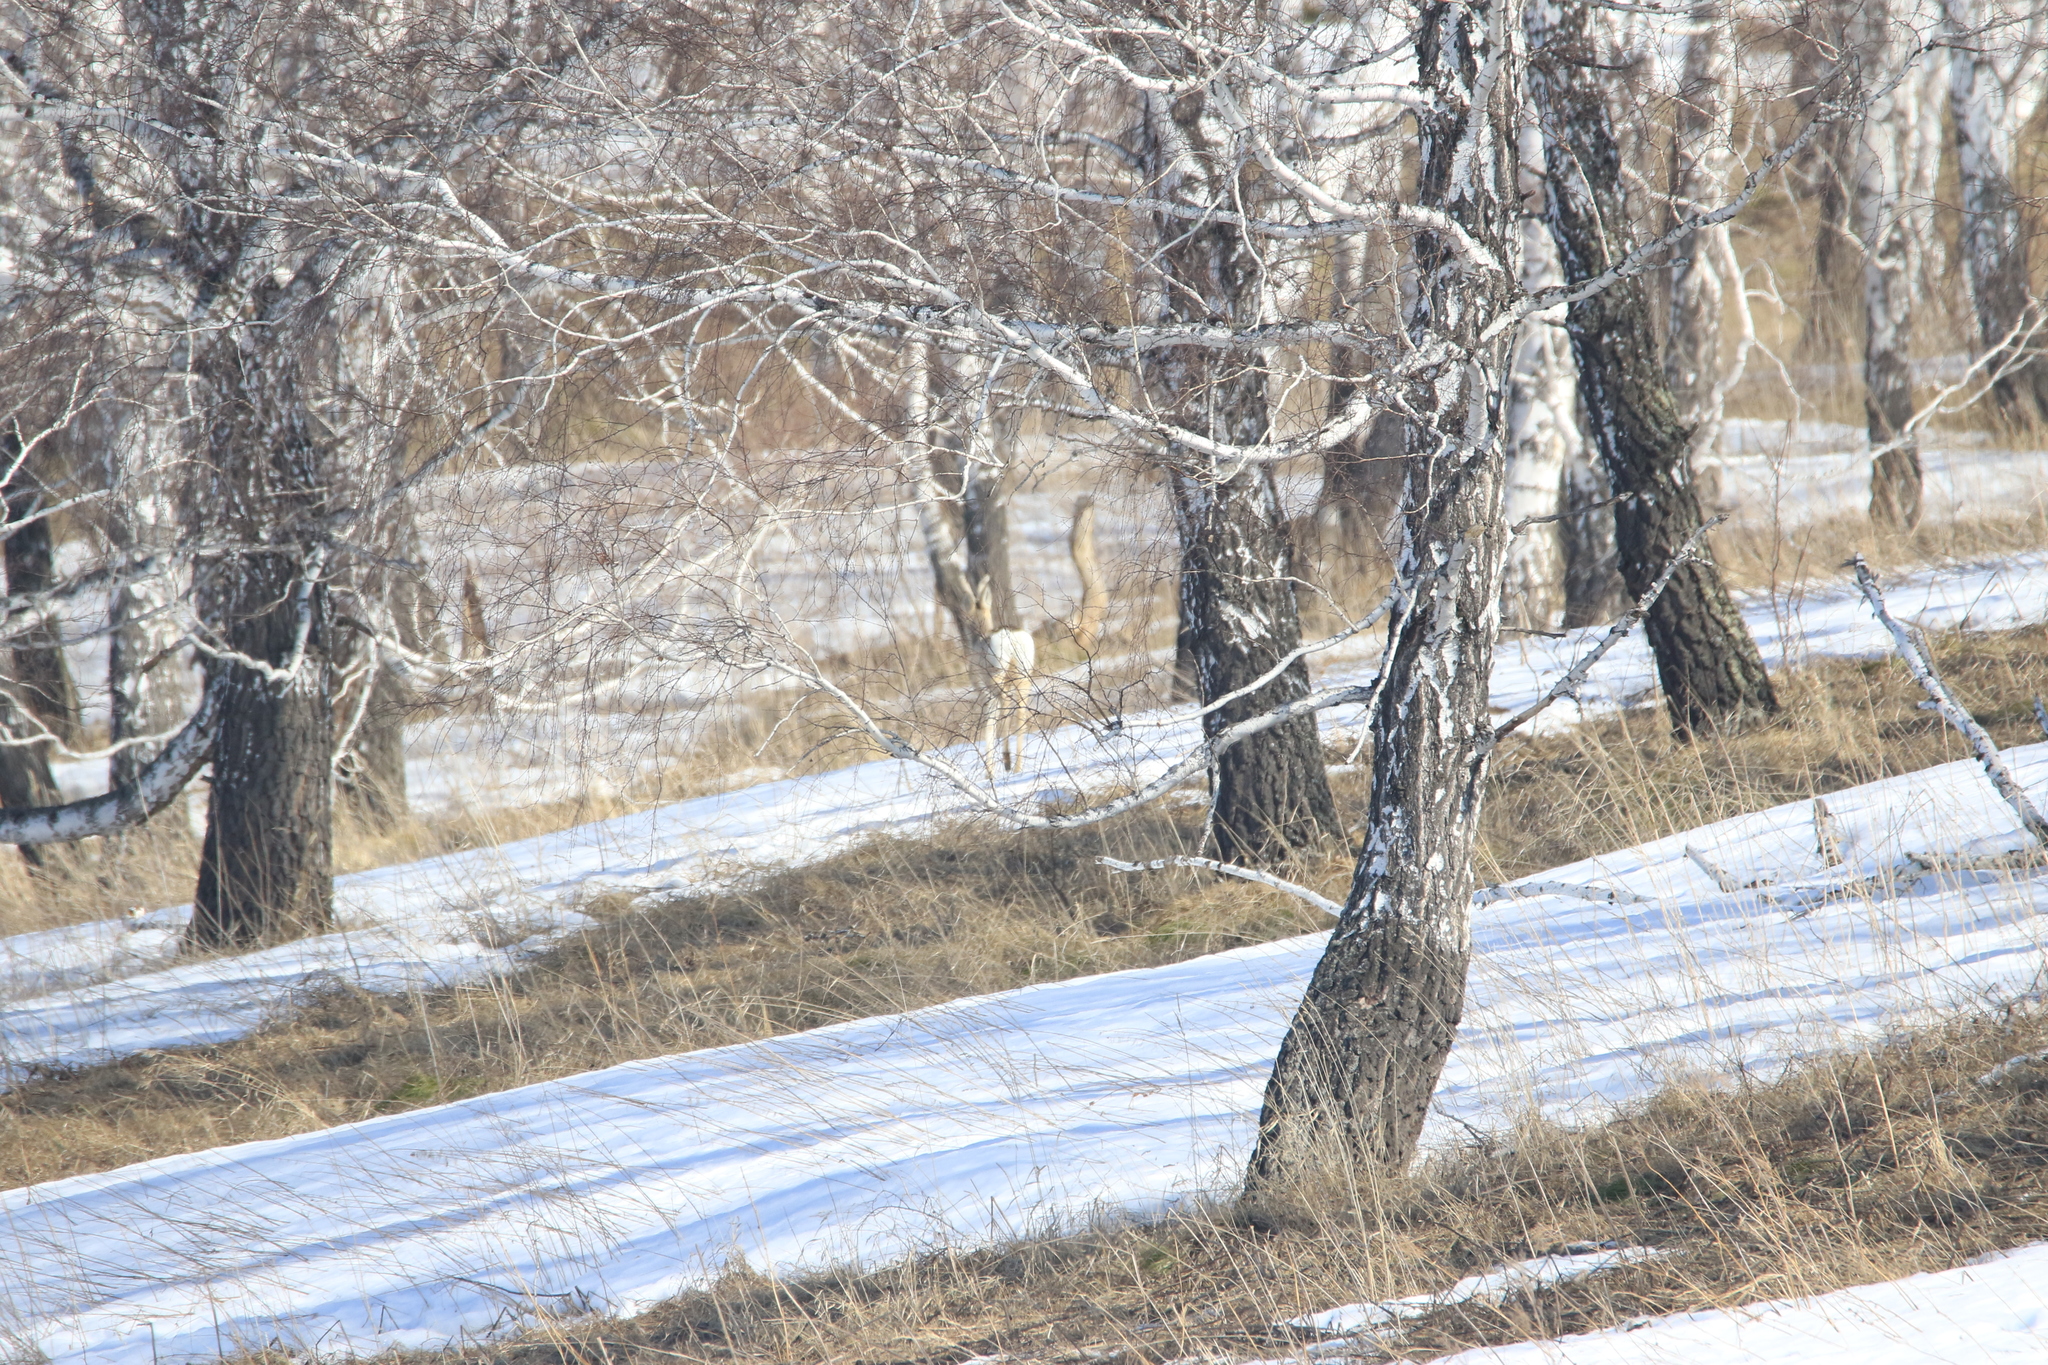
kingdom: Animalia
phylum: Chordata
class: Mammalia
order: Artiodactyla
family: Cervidae
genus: Capreolus
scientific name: Capreolus pygargus
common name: Siberian roe
